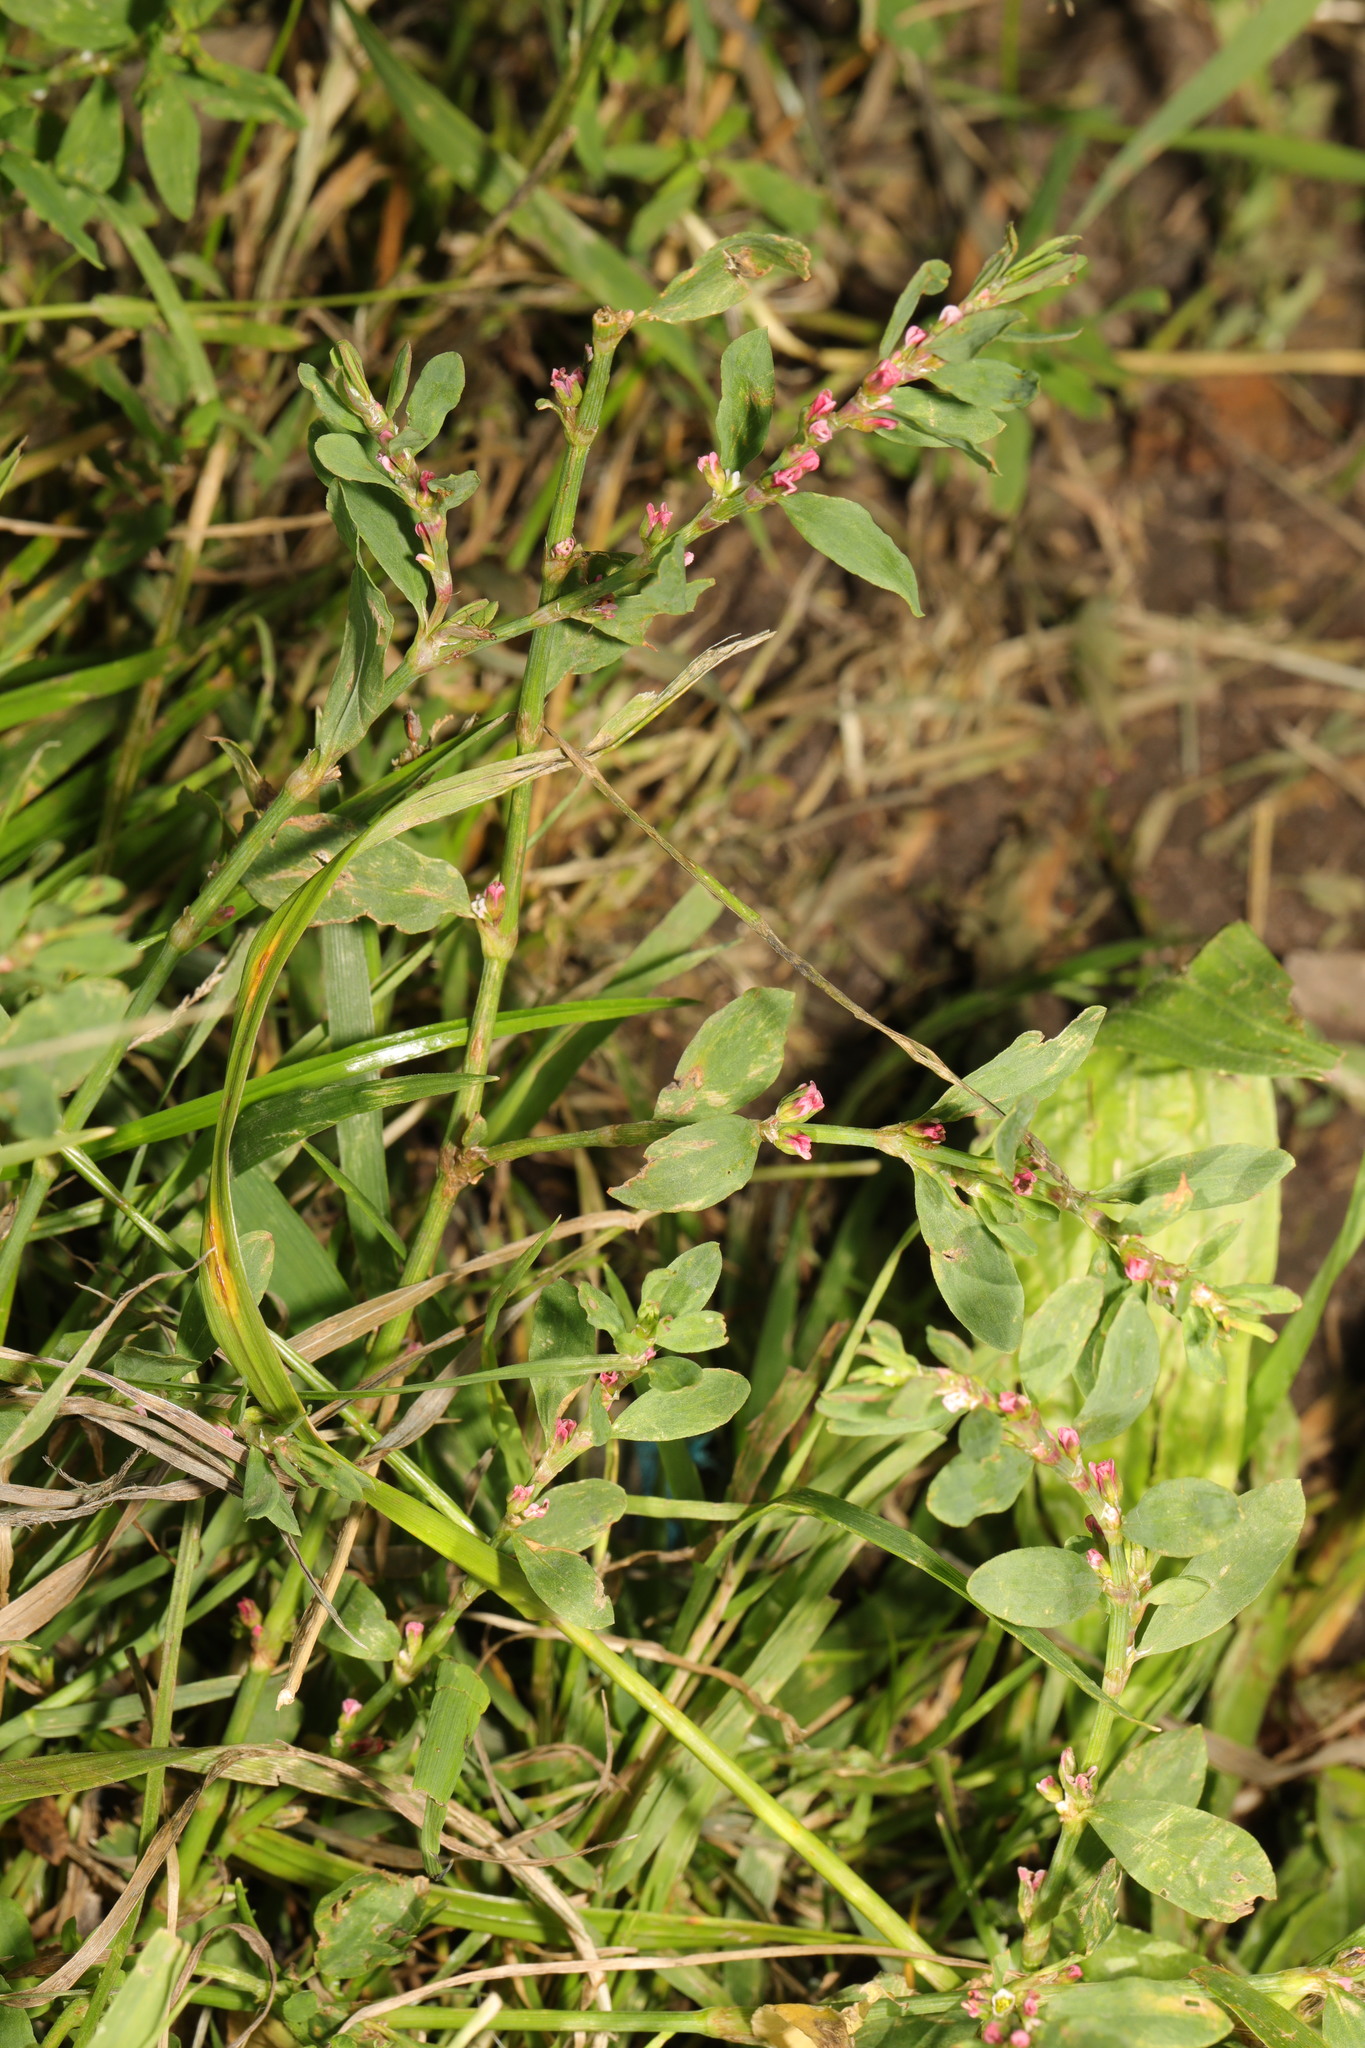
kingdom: Plantae
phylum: Tracheophyta
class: Magnoliopsida
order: Caryophyllales
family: Polygonaceae
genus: Polygonum
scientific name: Polygonum aviculare
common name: Prostrate knotweed
